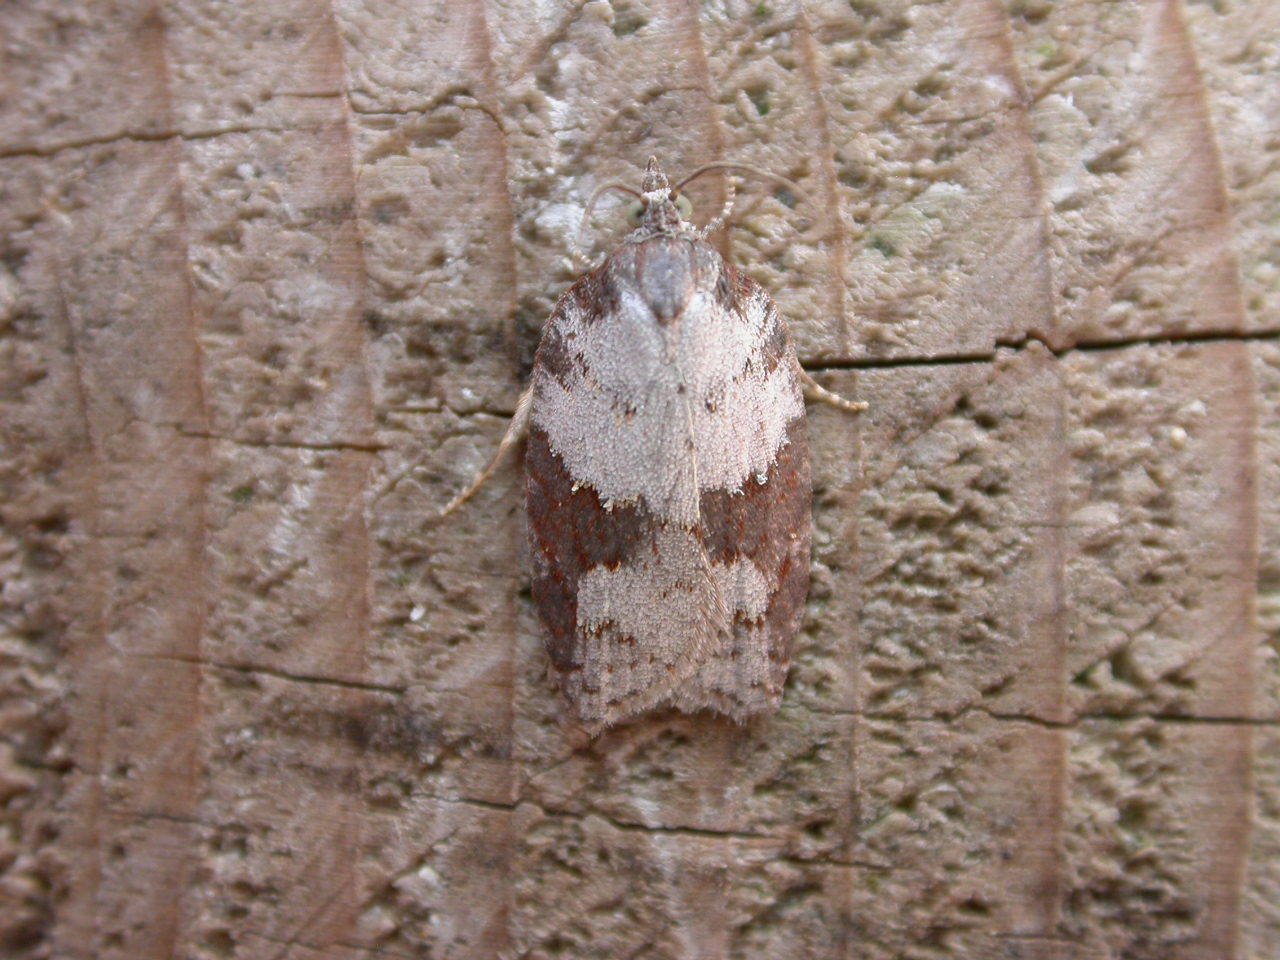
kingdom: Animalia
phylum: Arthropoda
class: Insecta
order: Lepidoptera
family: Tortricidae
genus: Acleris
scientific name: Acleris sparsana
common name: Ashy button
